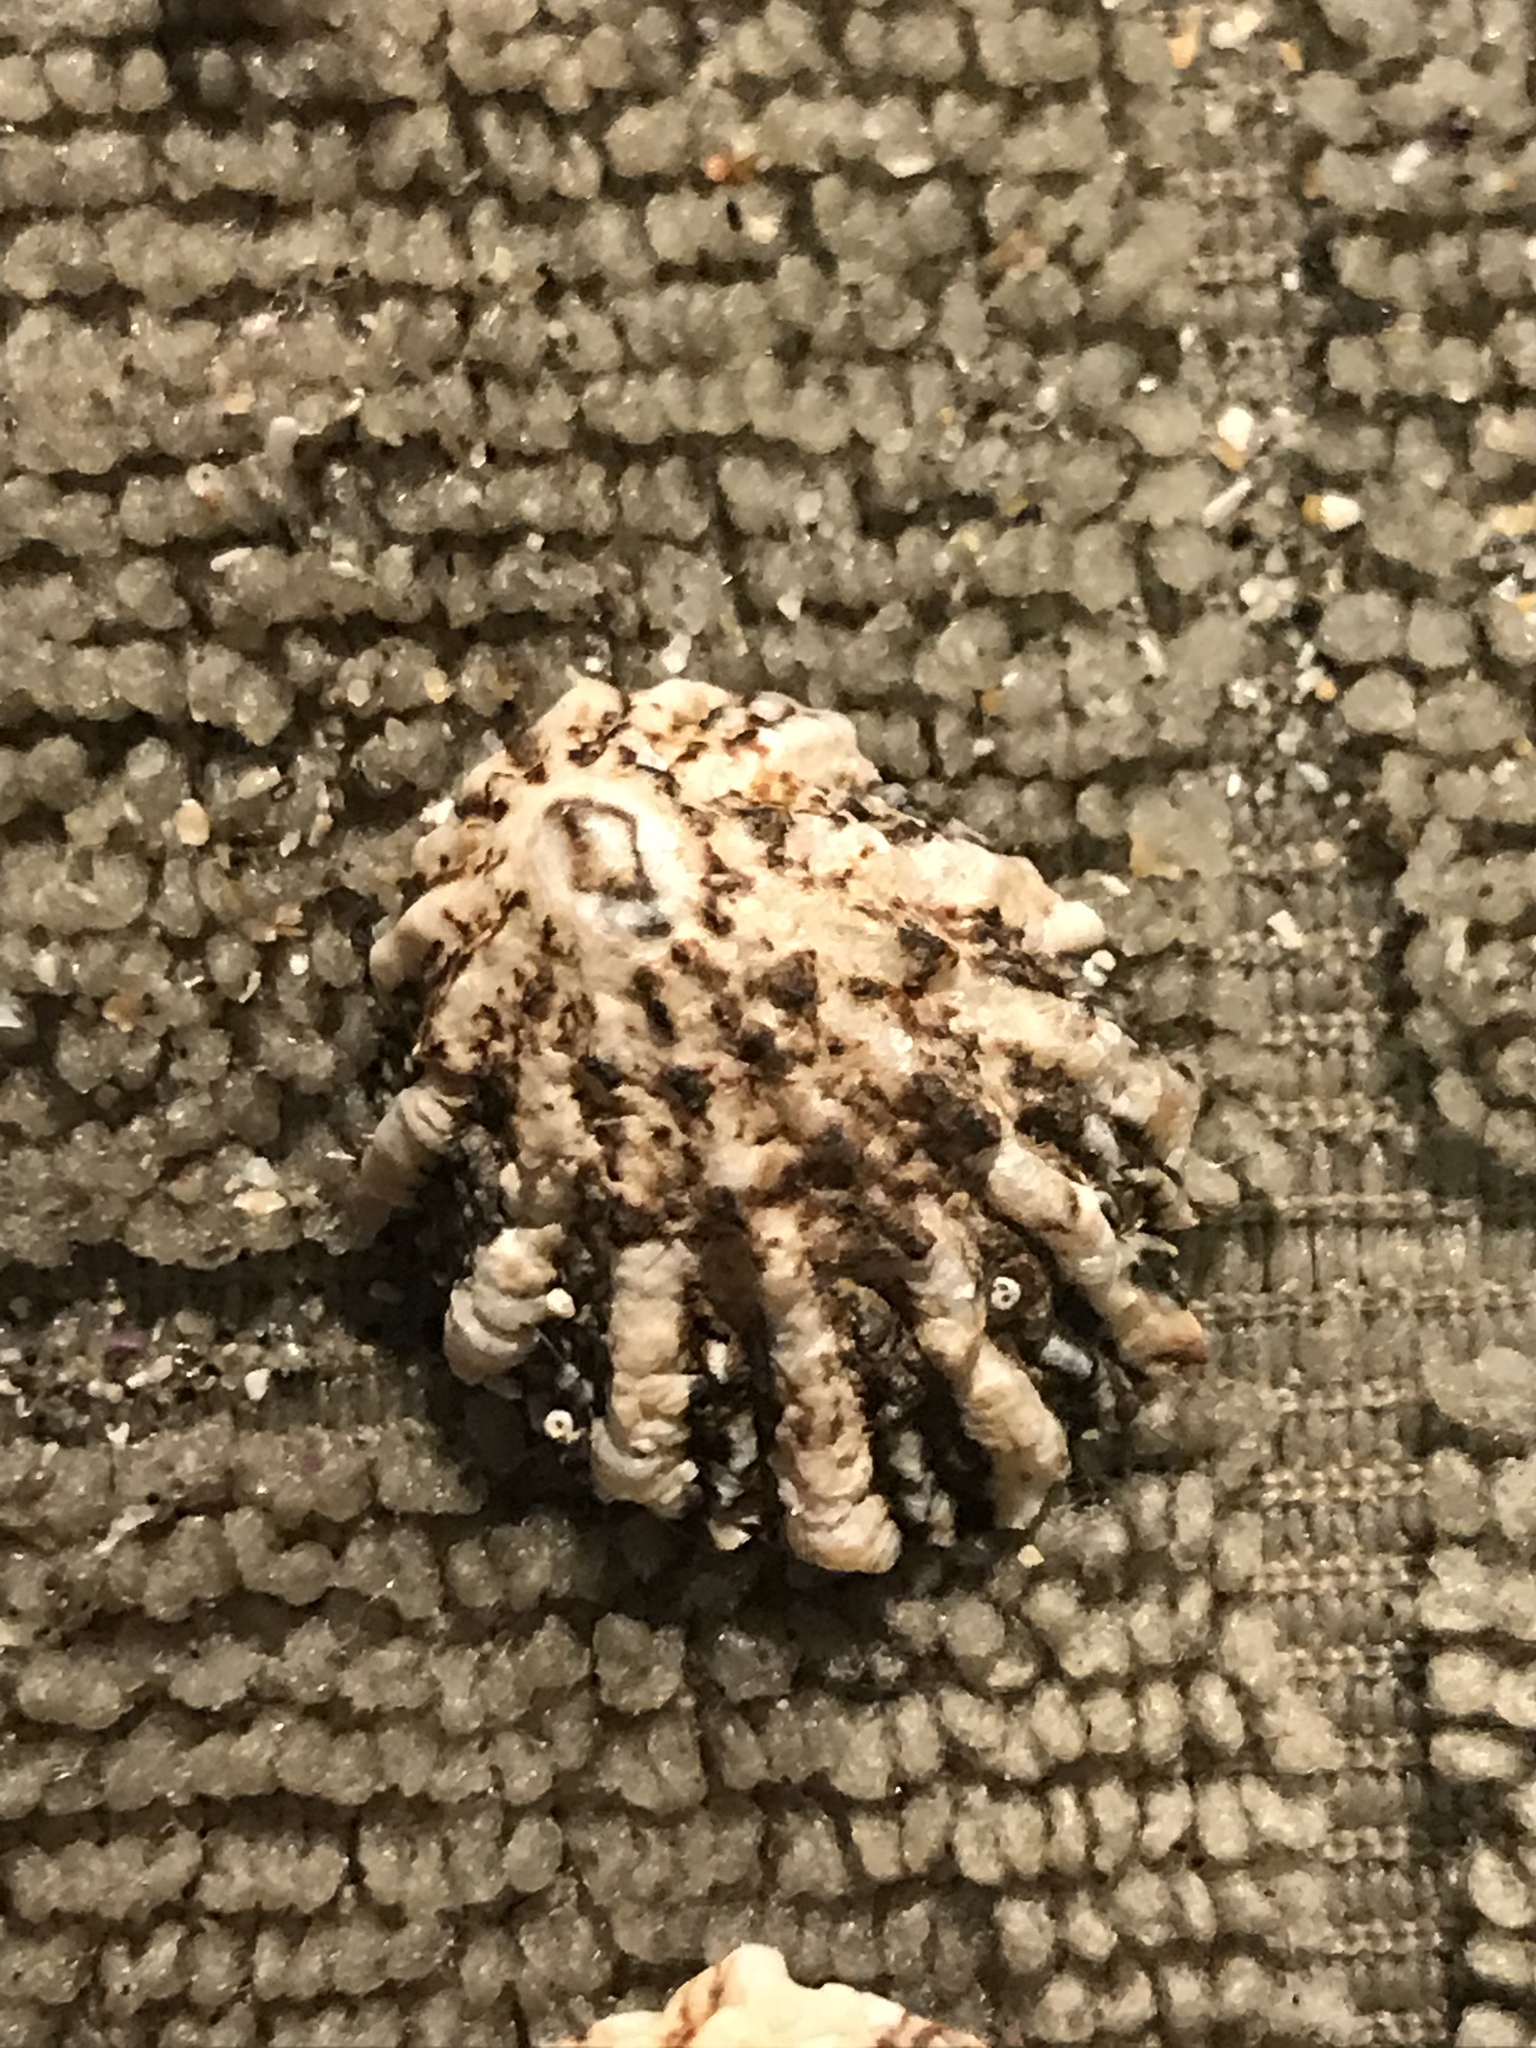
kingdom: Animalia
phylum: Mollusca
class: Gastropoda
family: Lottiidae
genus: Lottia
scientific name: Lottia scabra
